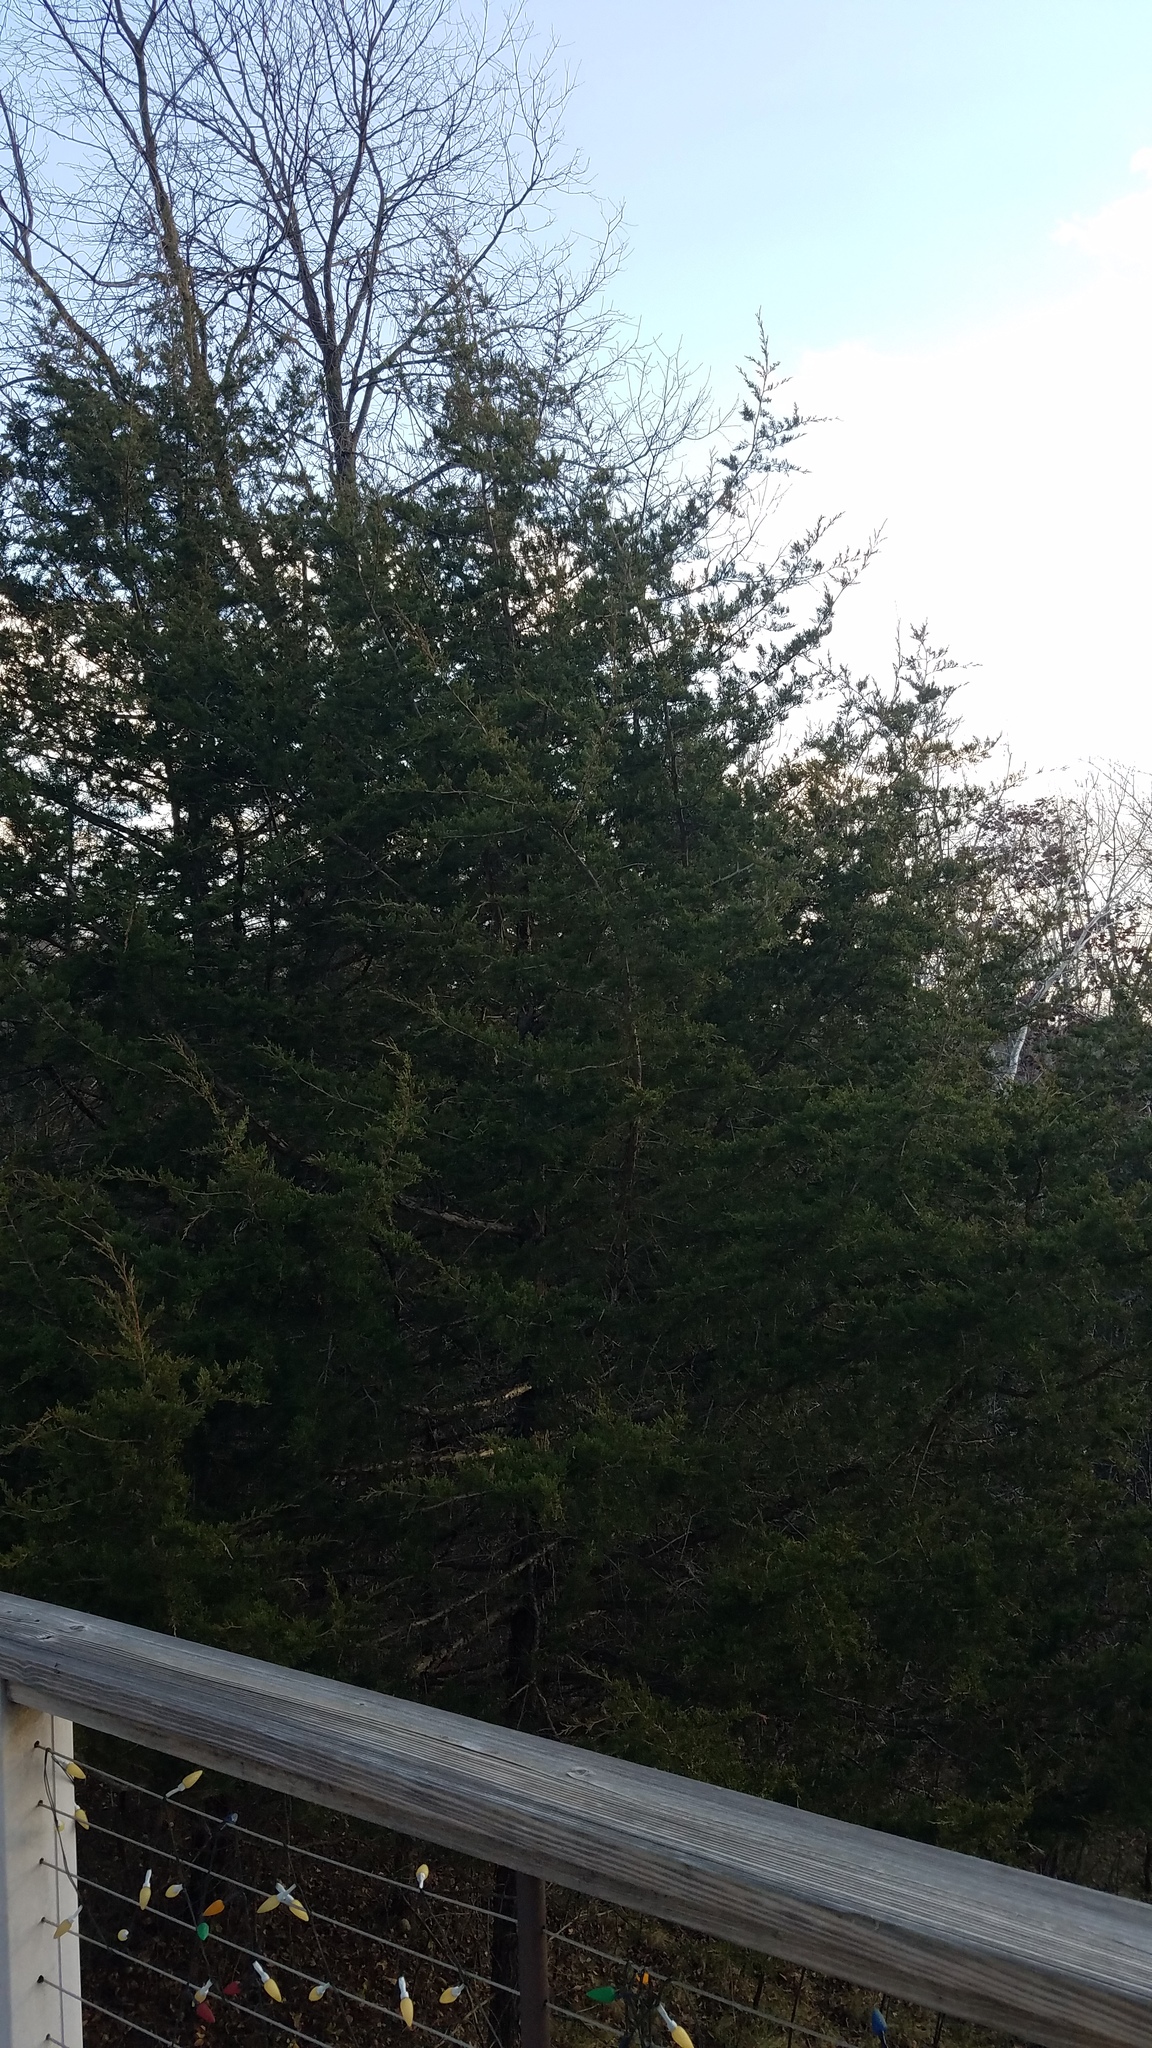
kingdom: Plantae
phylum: Tracheophyta
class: Pinopsida
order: Pinales
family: Cupressaceae
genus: Juniperus
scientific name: Juniperus virginiana
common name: Red juniper
